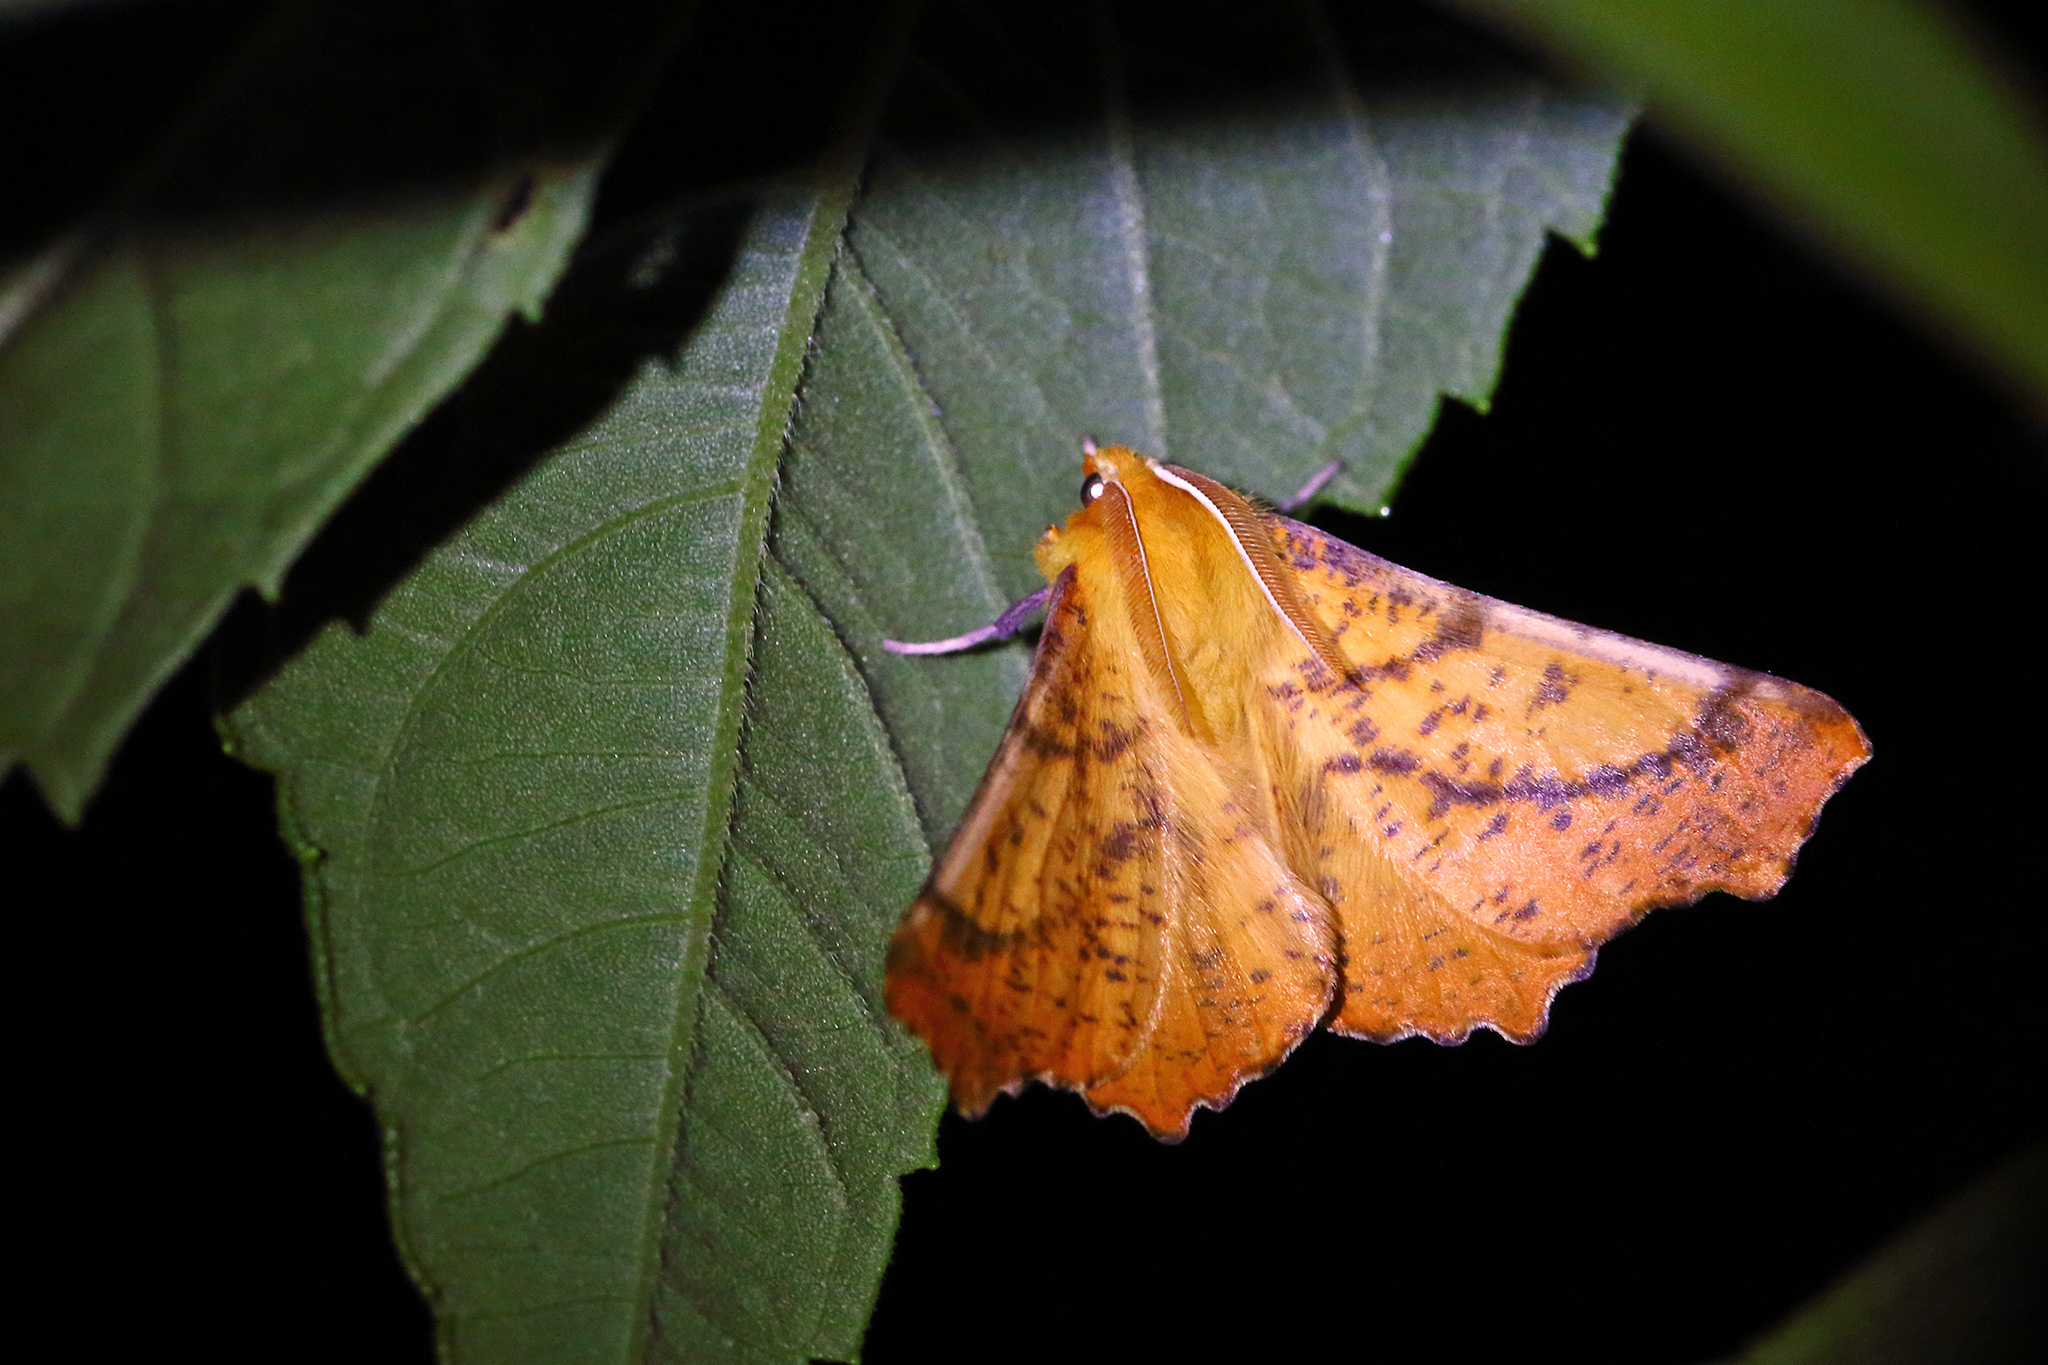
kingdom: Animalia
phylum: Arthropoda
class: Insecta
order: Lepidoptera
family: Geometridae
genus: Ennomos
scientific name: Ennomos autumnaria
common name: Large thorn
